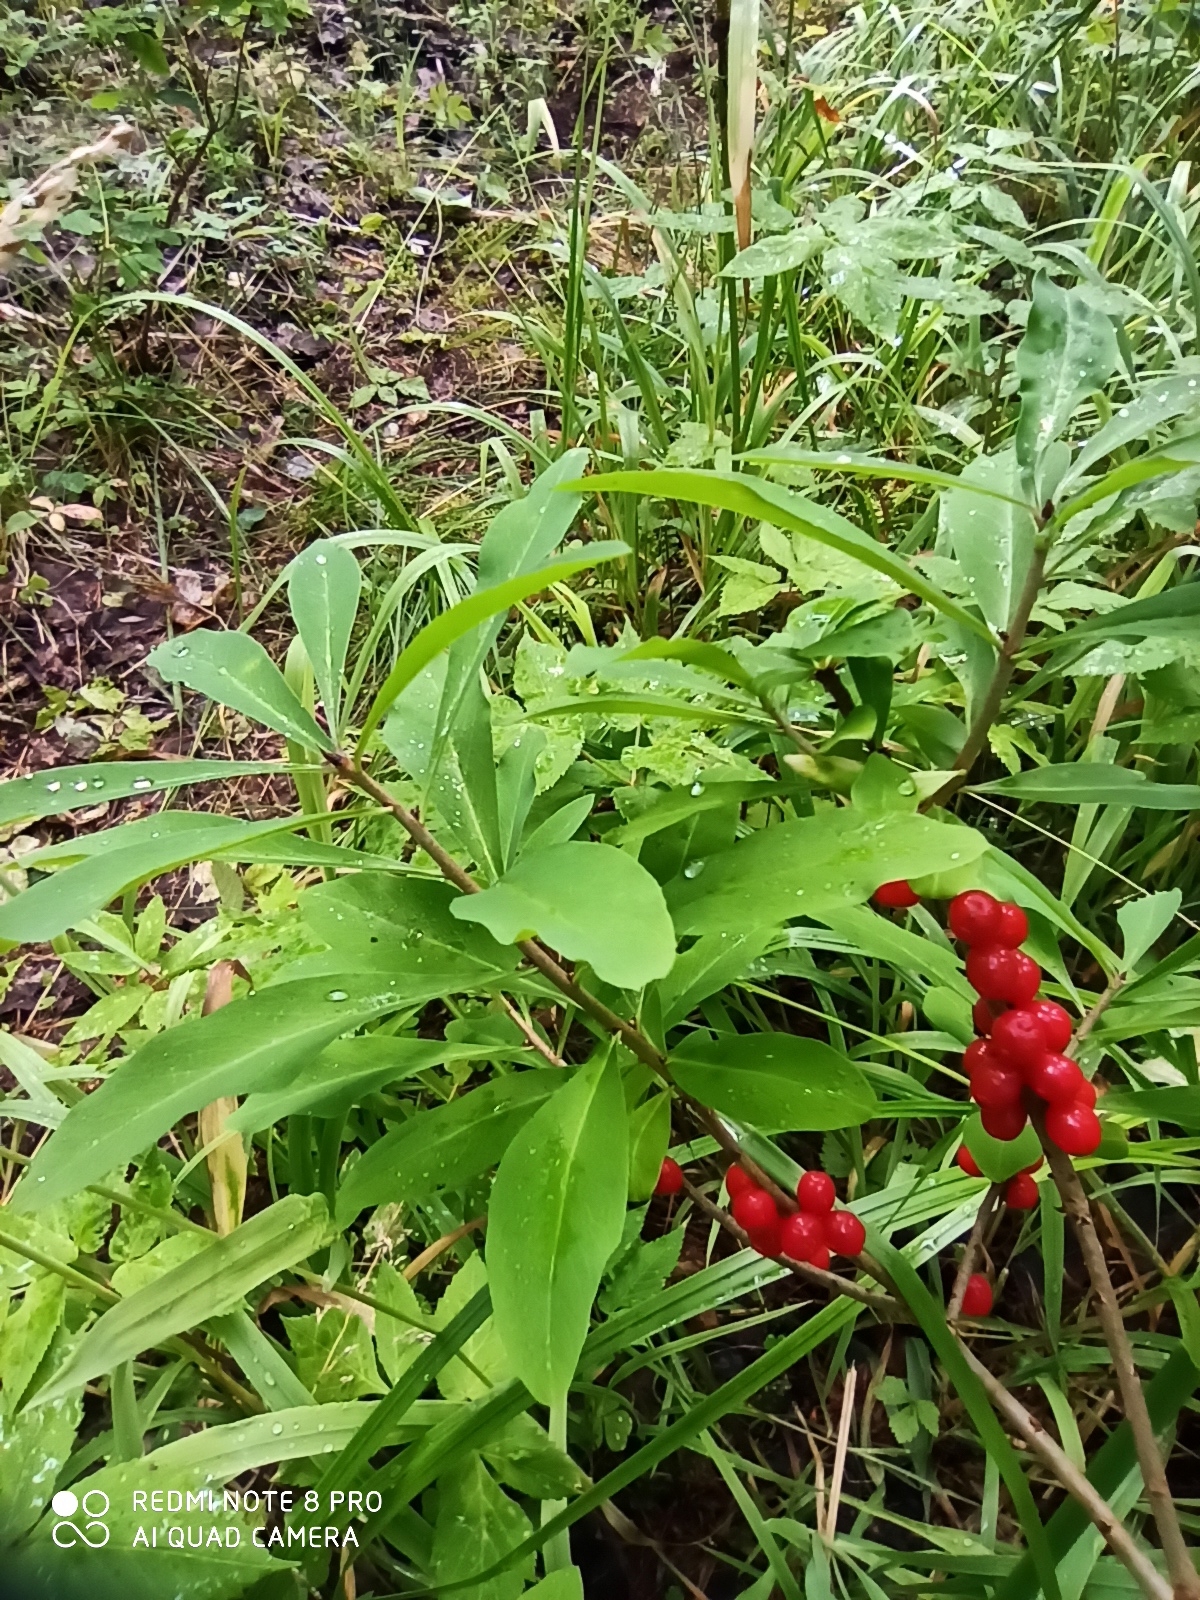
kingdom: Plantae
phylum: Tracheophyta
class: Magnoliopsida
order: Malvales
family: Thymelaeaceae
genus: Daphne
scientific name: Daphne mezereum
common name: Mezereon
